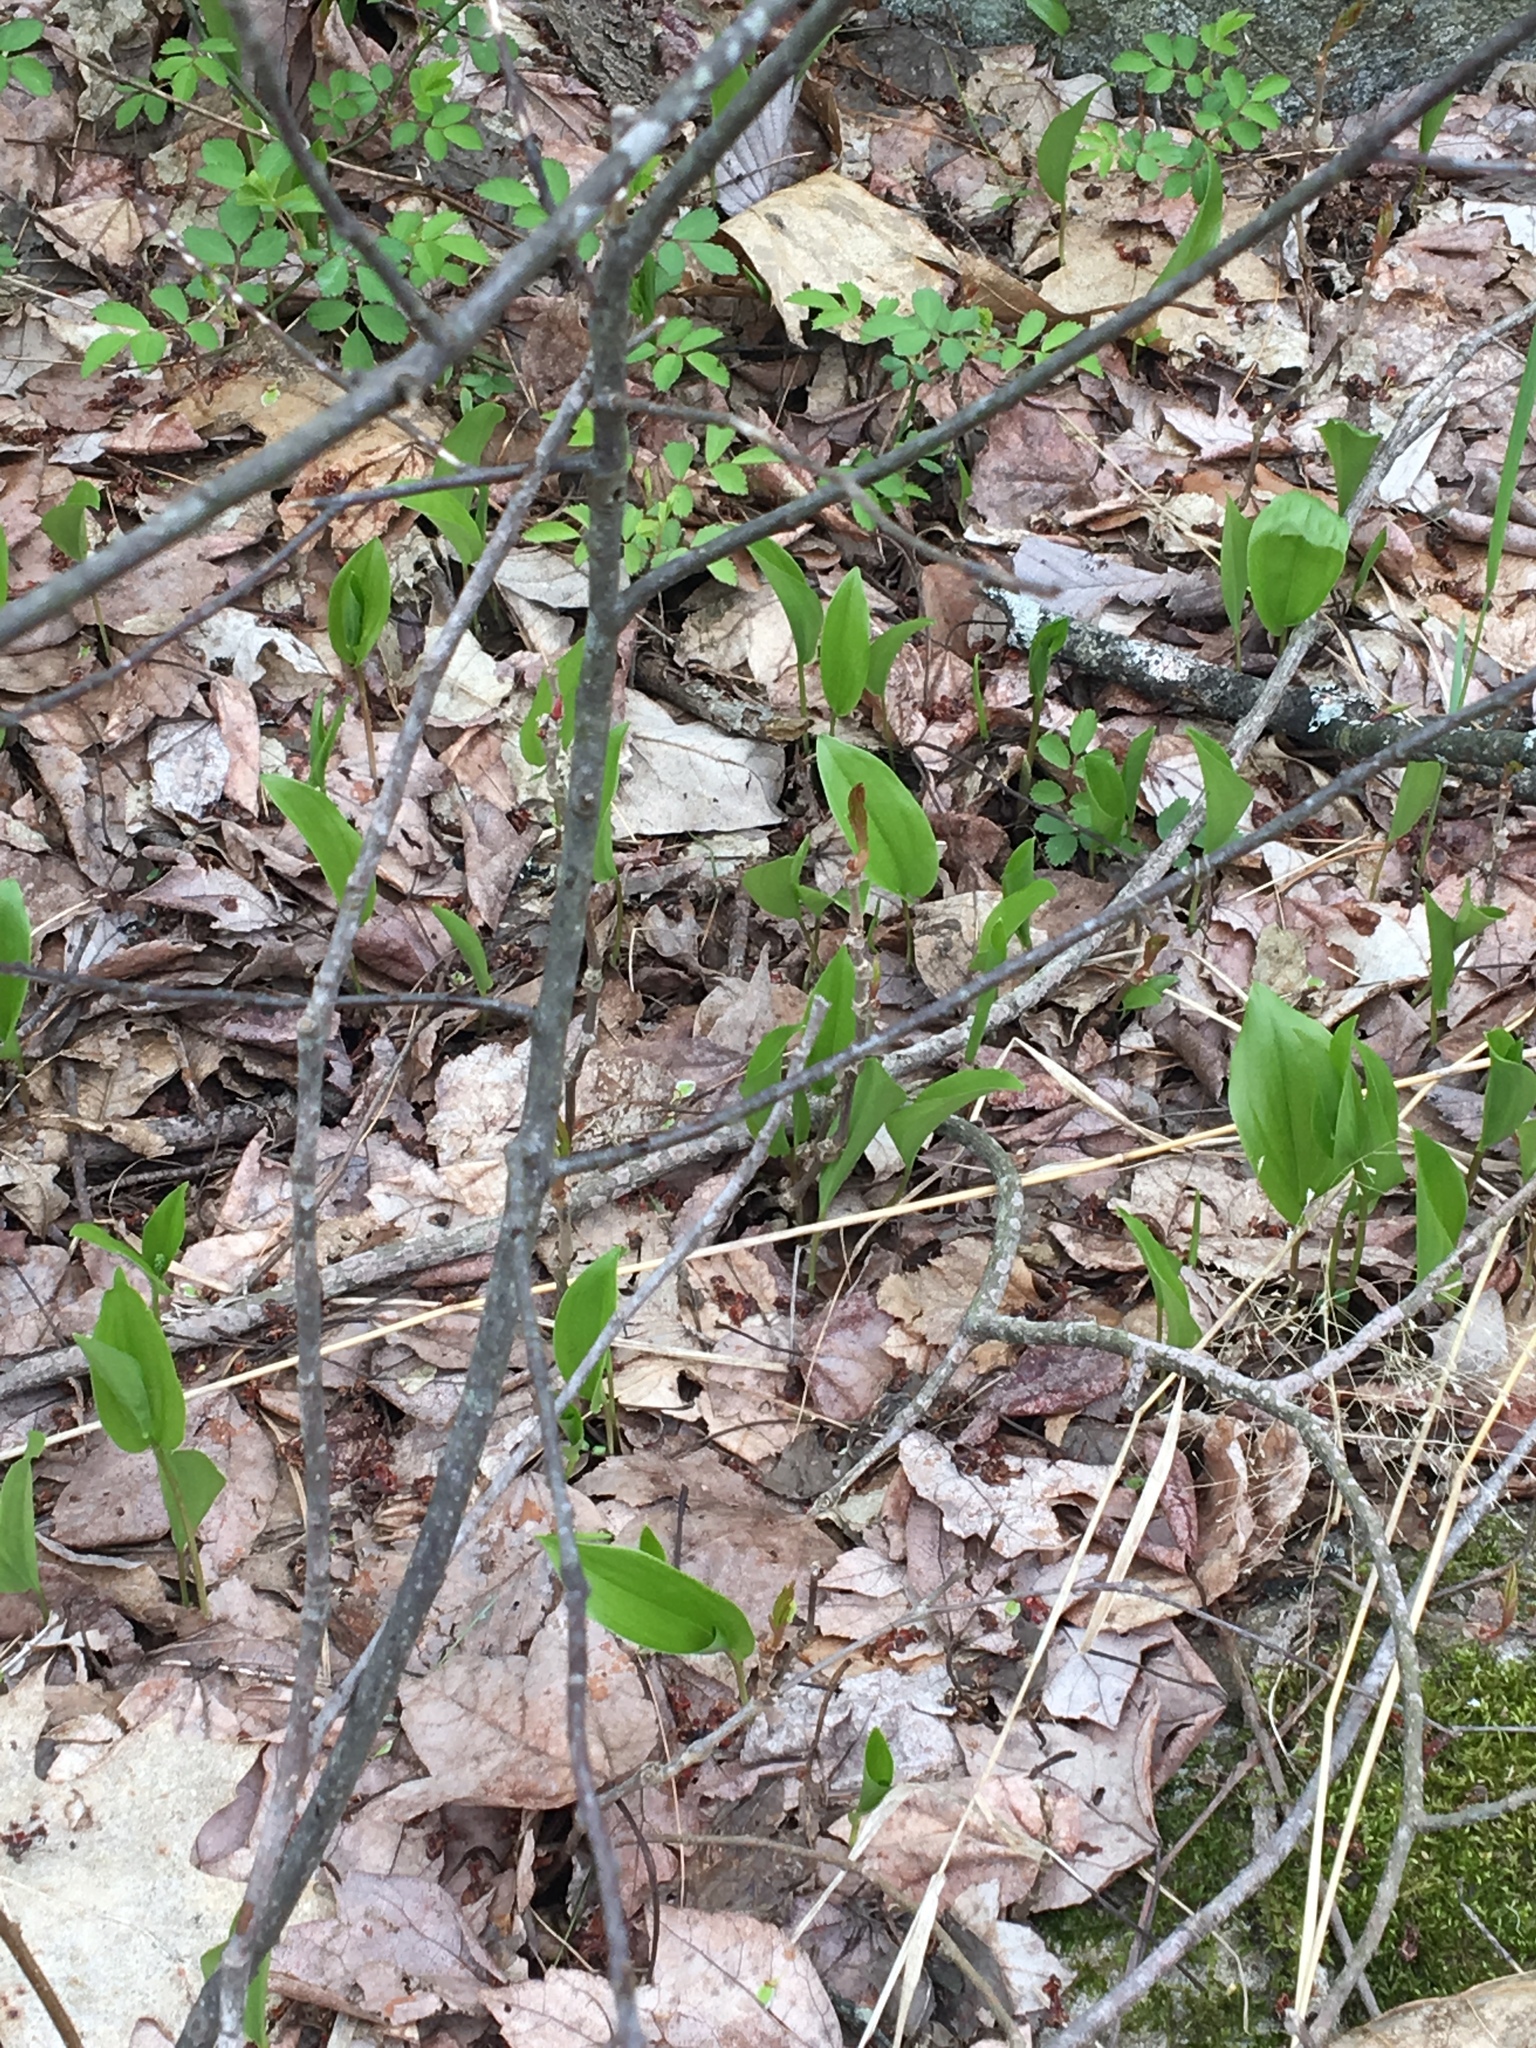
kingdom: Plantae
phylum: Tracheophyta
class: Liliopsida
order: Asparagales
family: Asparagaceae
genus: Maianthemum
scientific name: Maianthemum canadense
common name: False lily-of-the-valley
